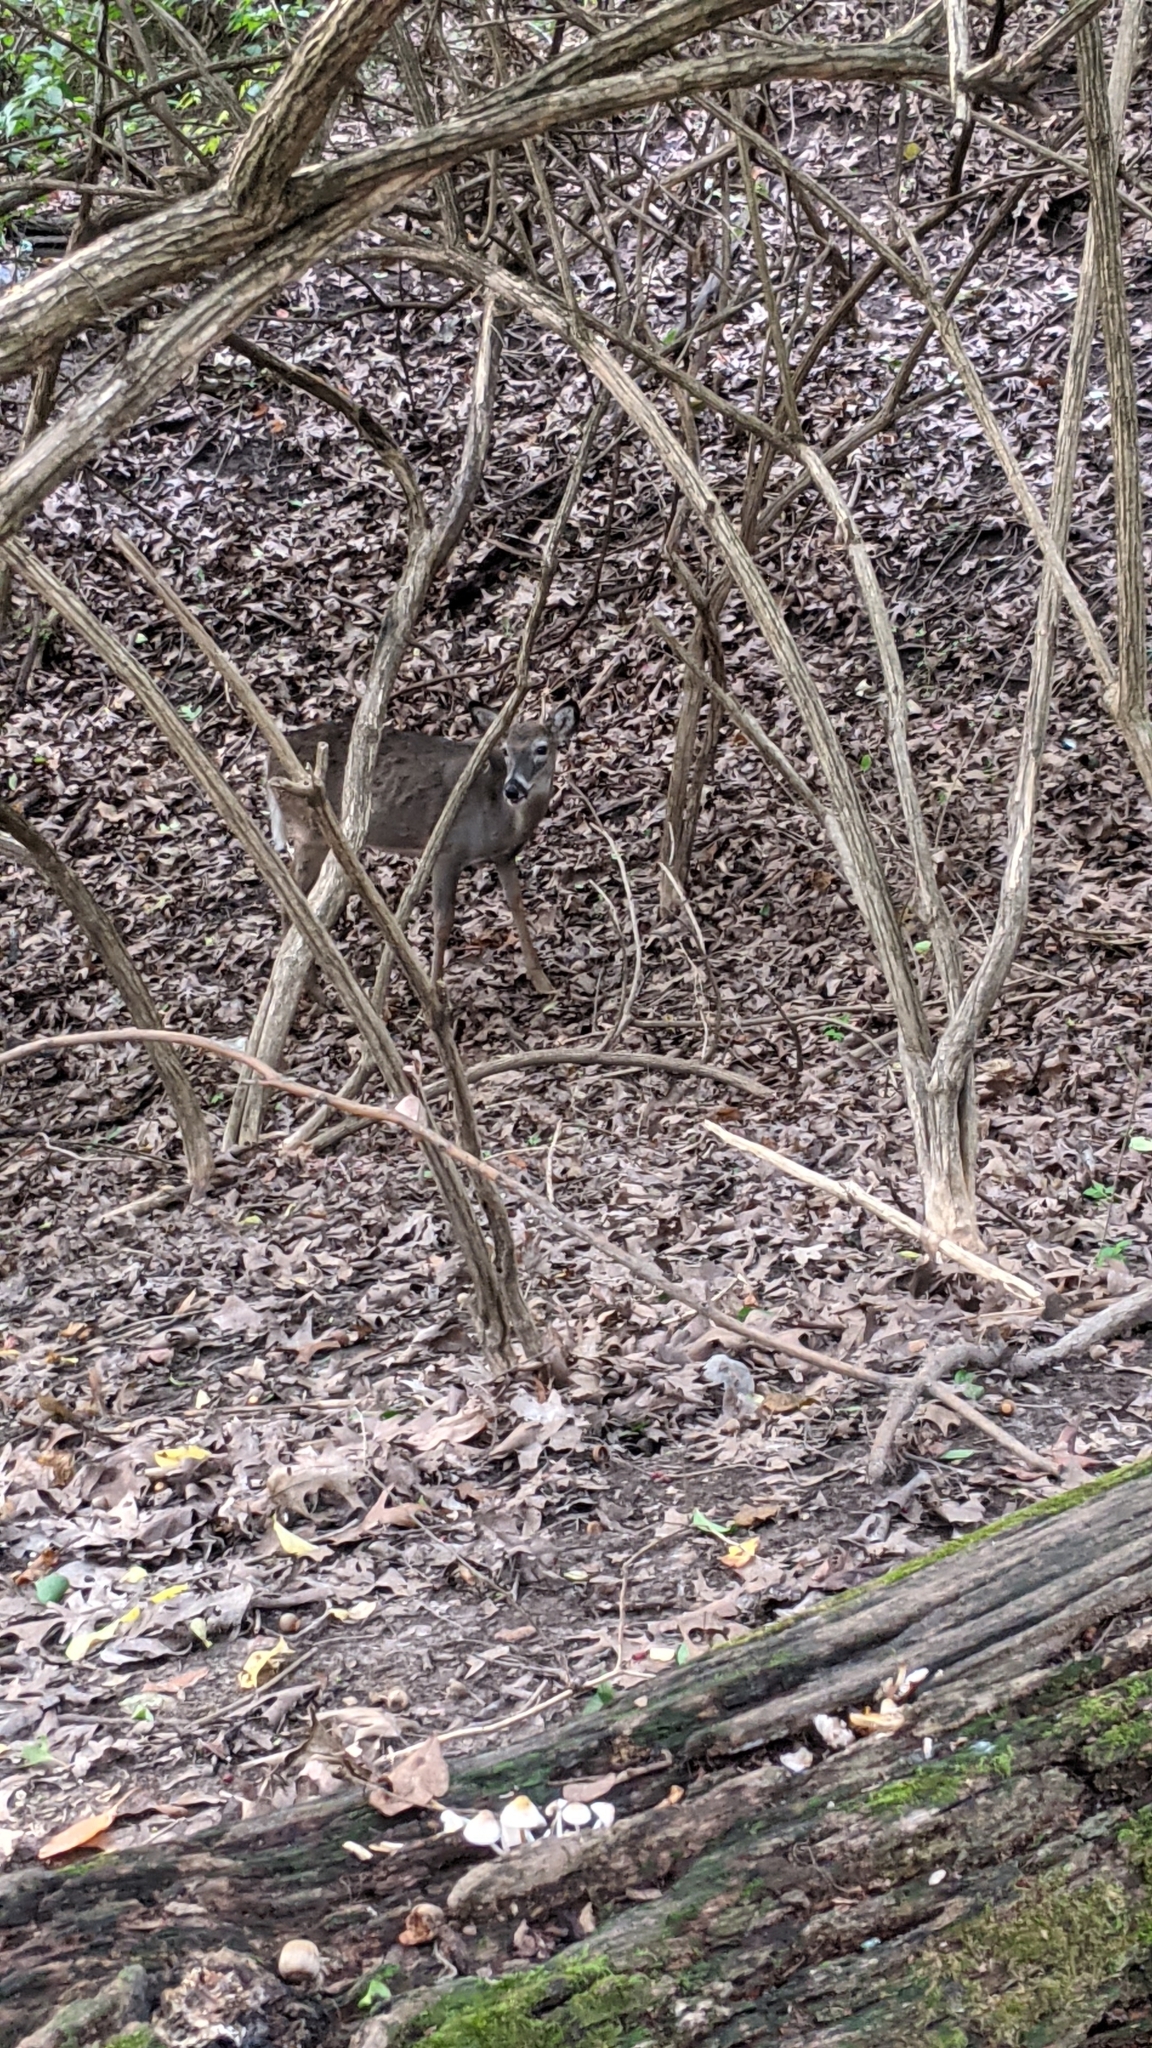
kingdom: Animalia
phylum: Chordata
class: Mammalia
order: Artiodactyla
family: Cervidae
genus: Odocoileus
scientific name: Odocoileus virginianus
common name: White-tailed deer
